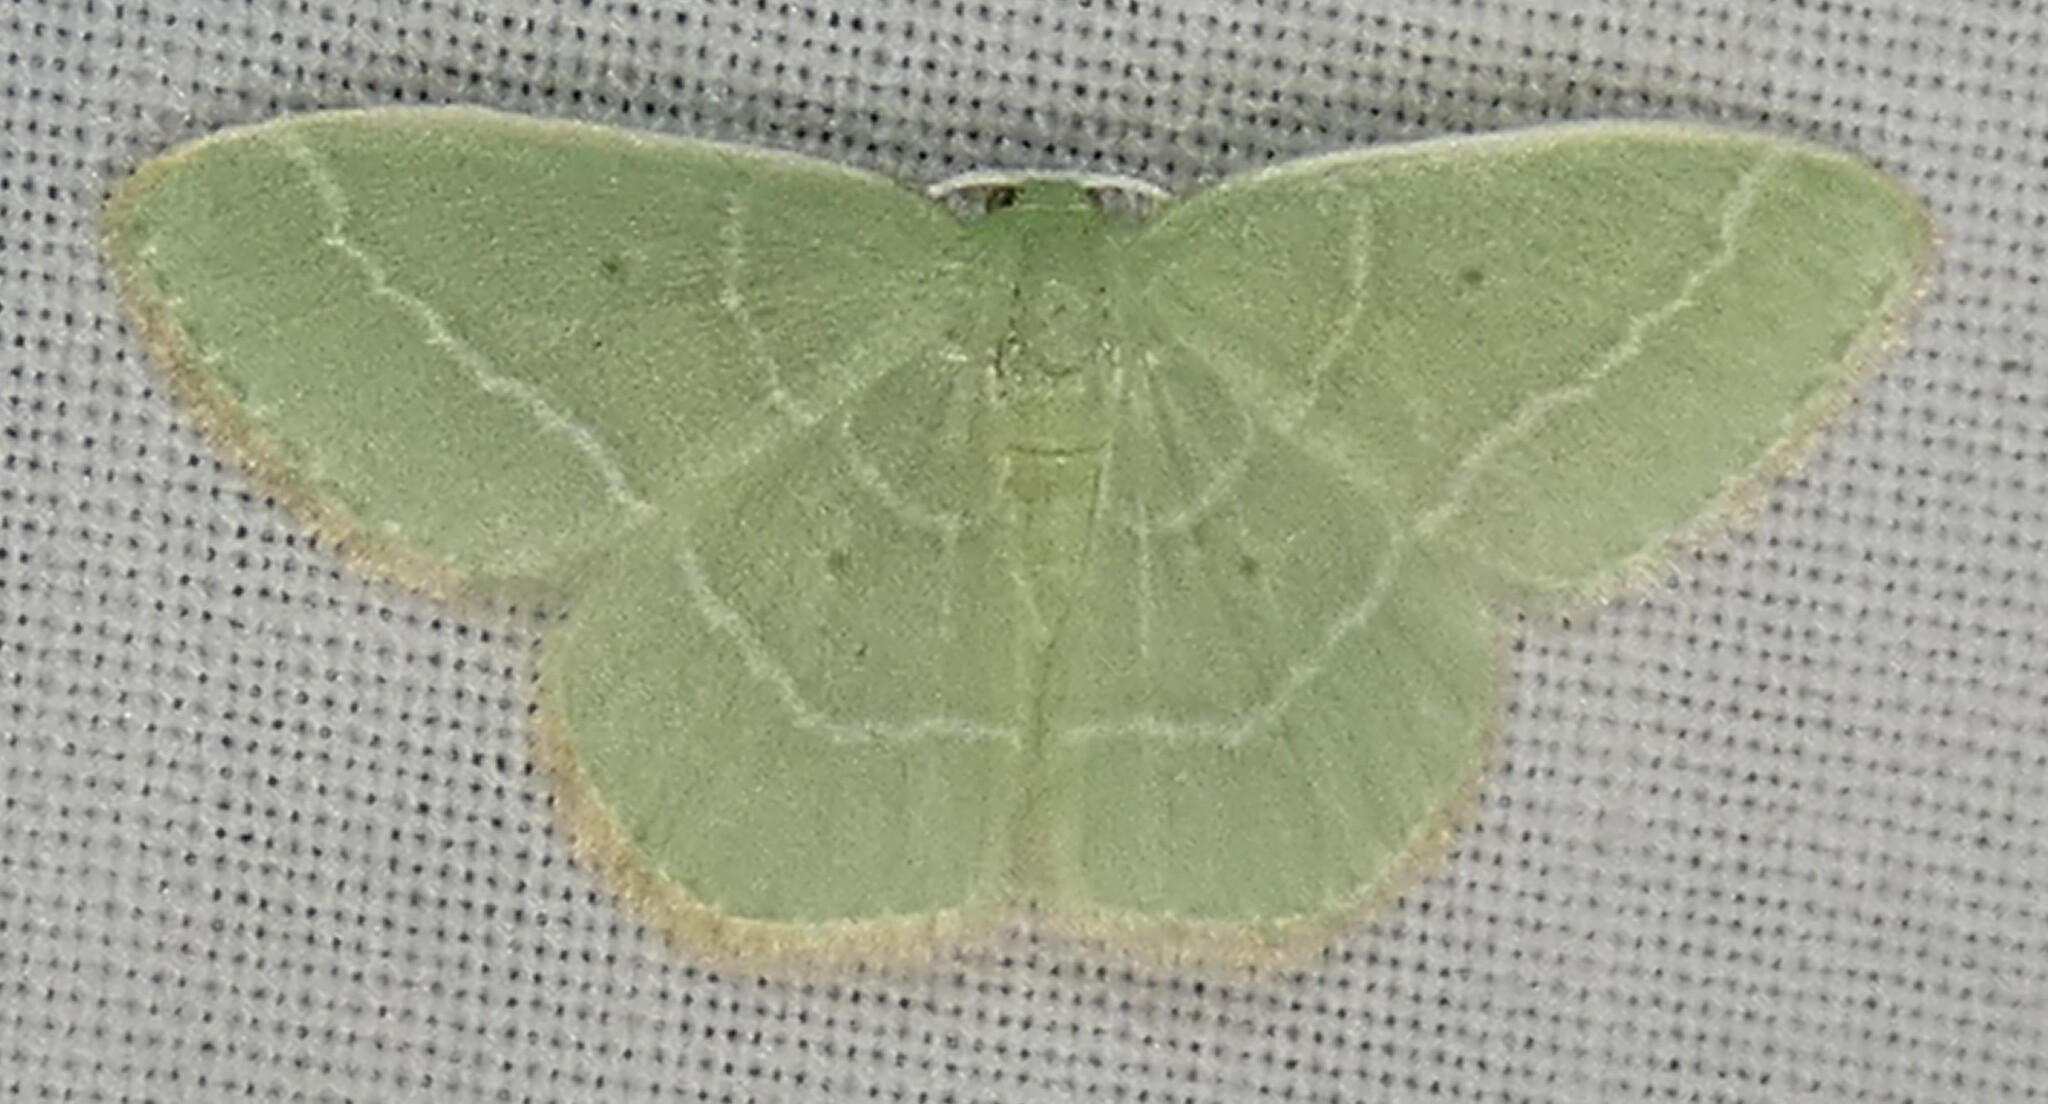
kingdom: Animalia
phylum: Arthropoda
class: Insecta
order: Lepidoptera
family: Geometridae
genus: Nemoria
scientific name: Nemoria elfa
